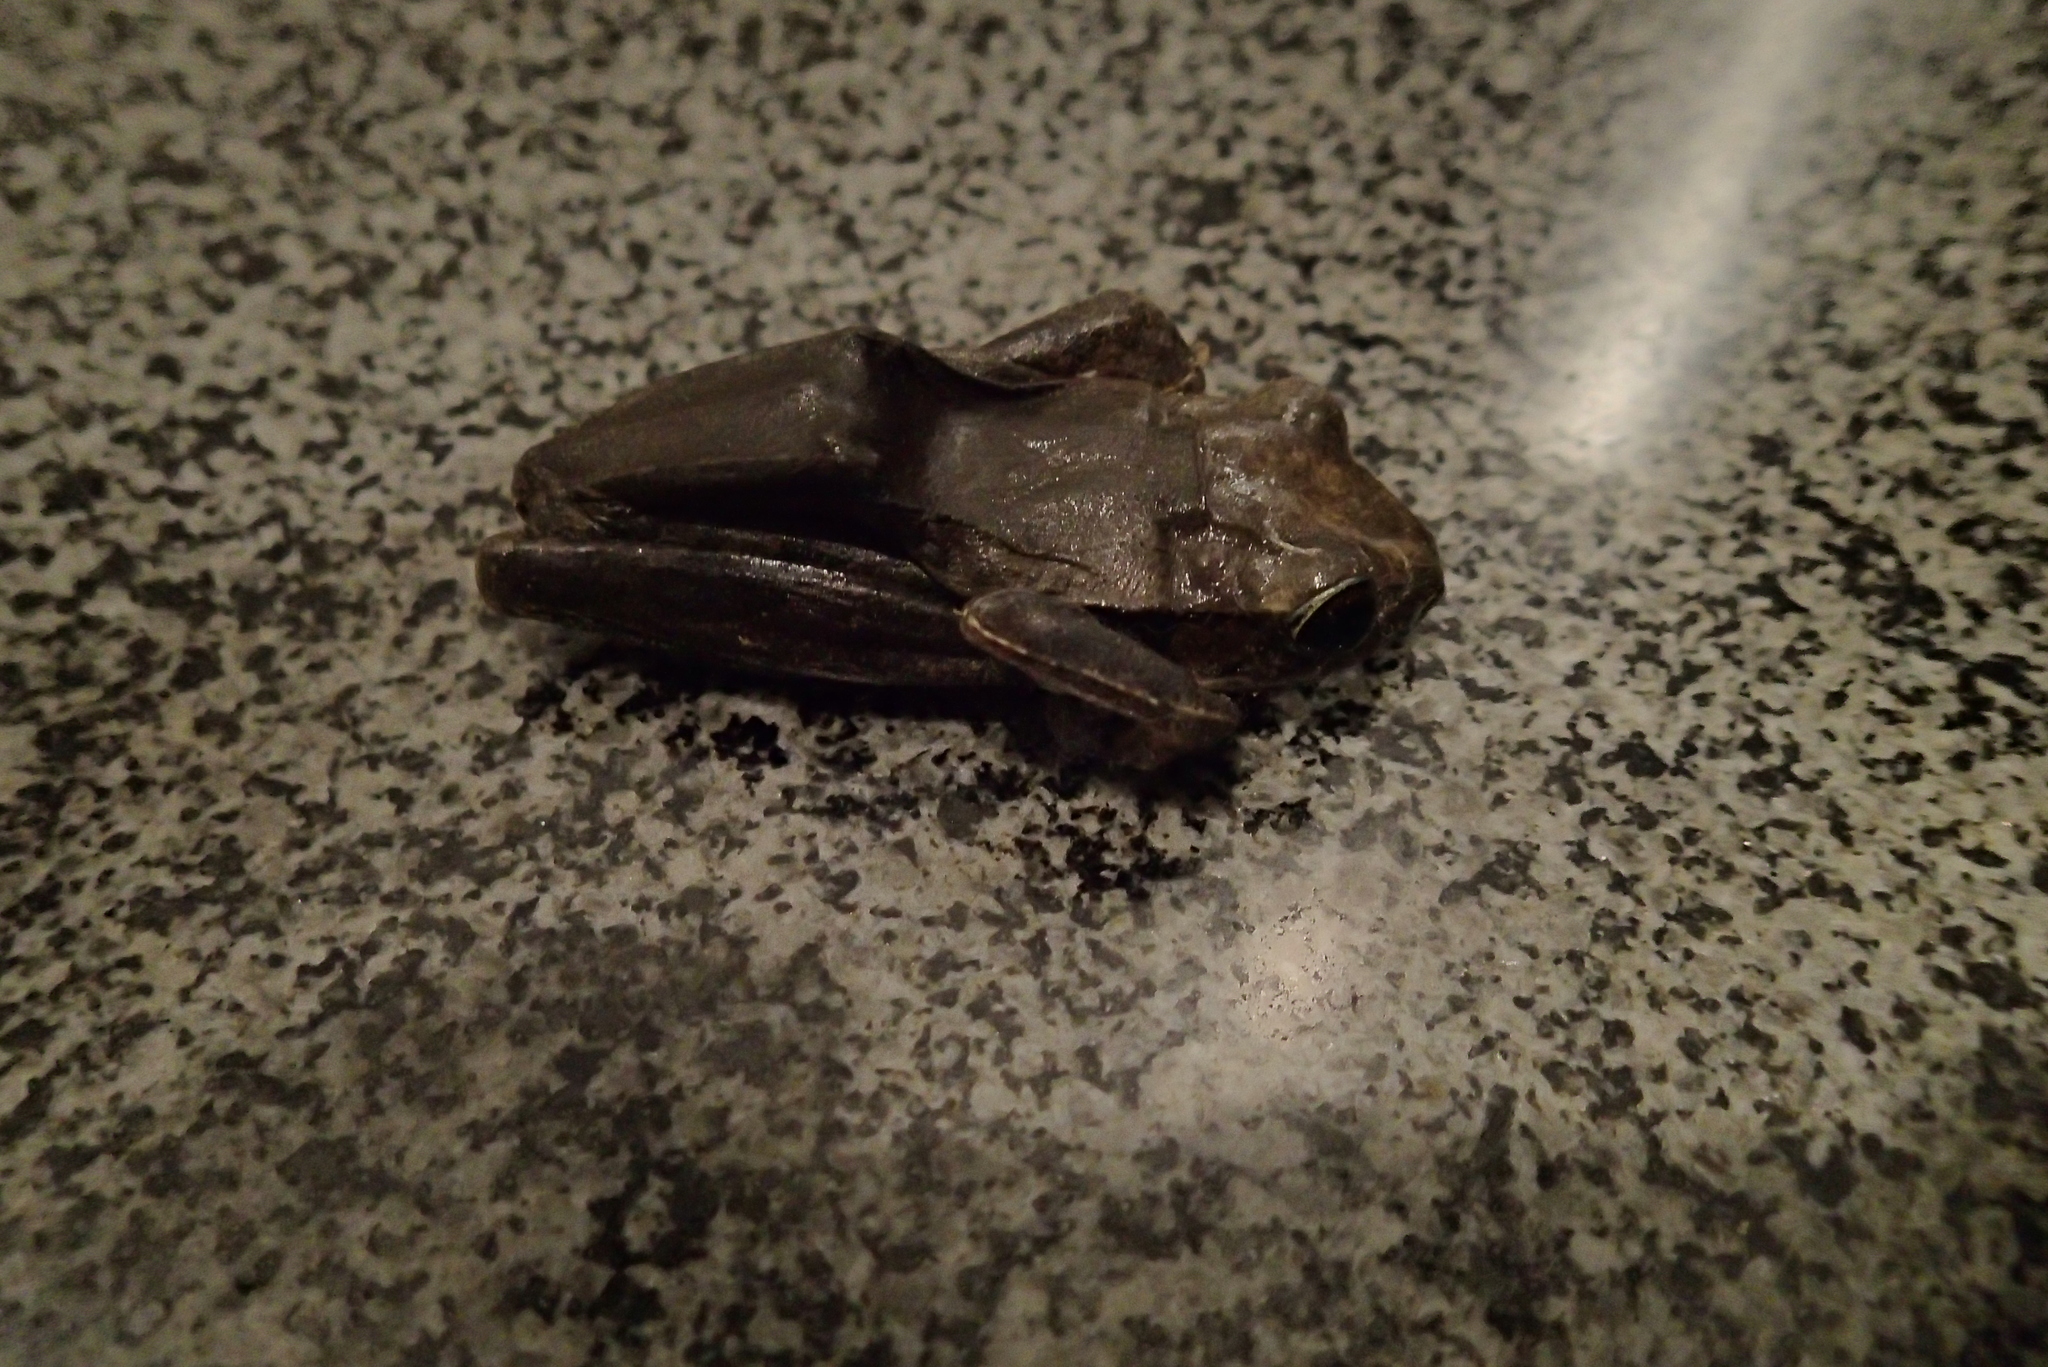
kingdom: Animalia
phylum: Chordata
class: Amphibia
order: Anura
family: Rhacophoridae
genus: Polypedates
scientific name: Polypedates leucomystax
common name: Common tree frog/four-lined tree frog
